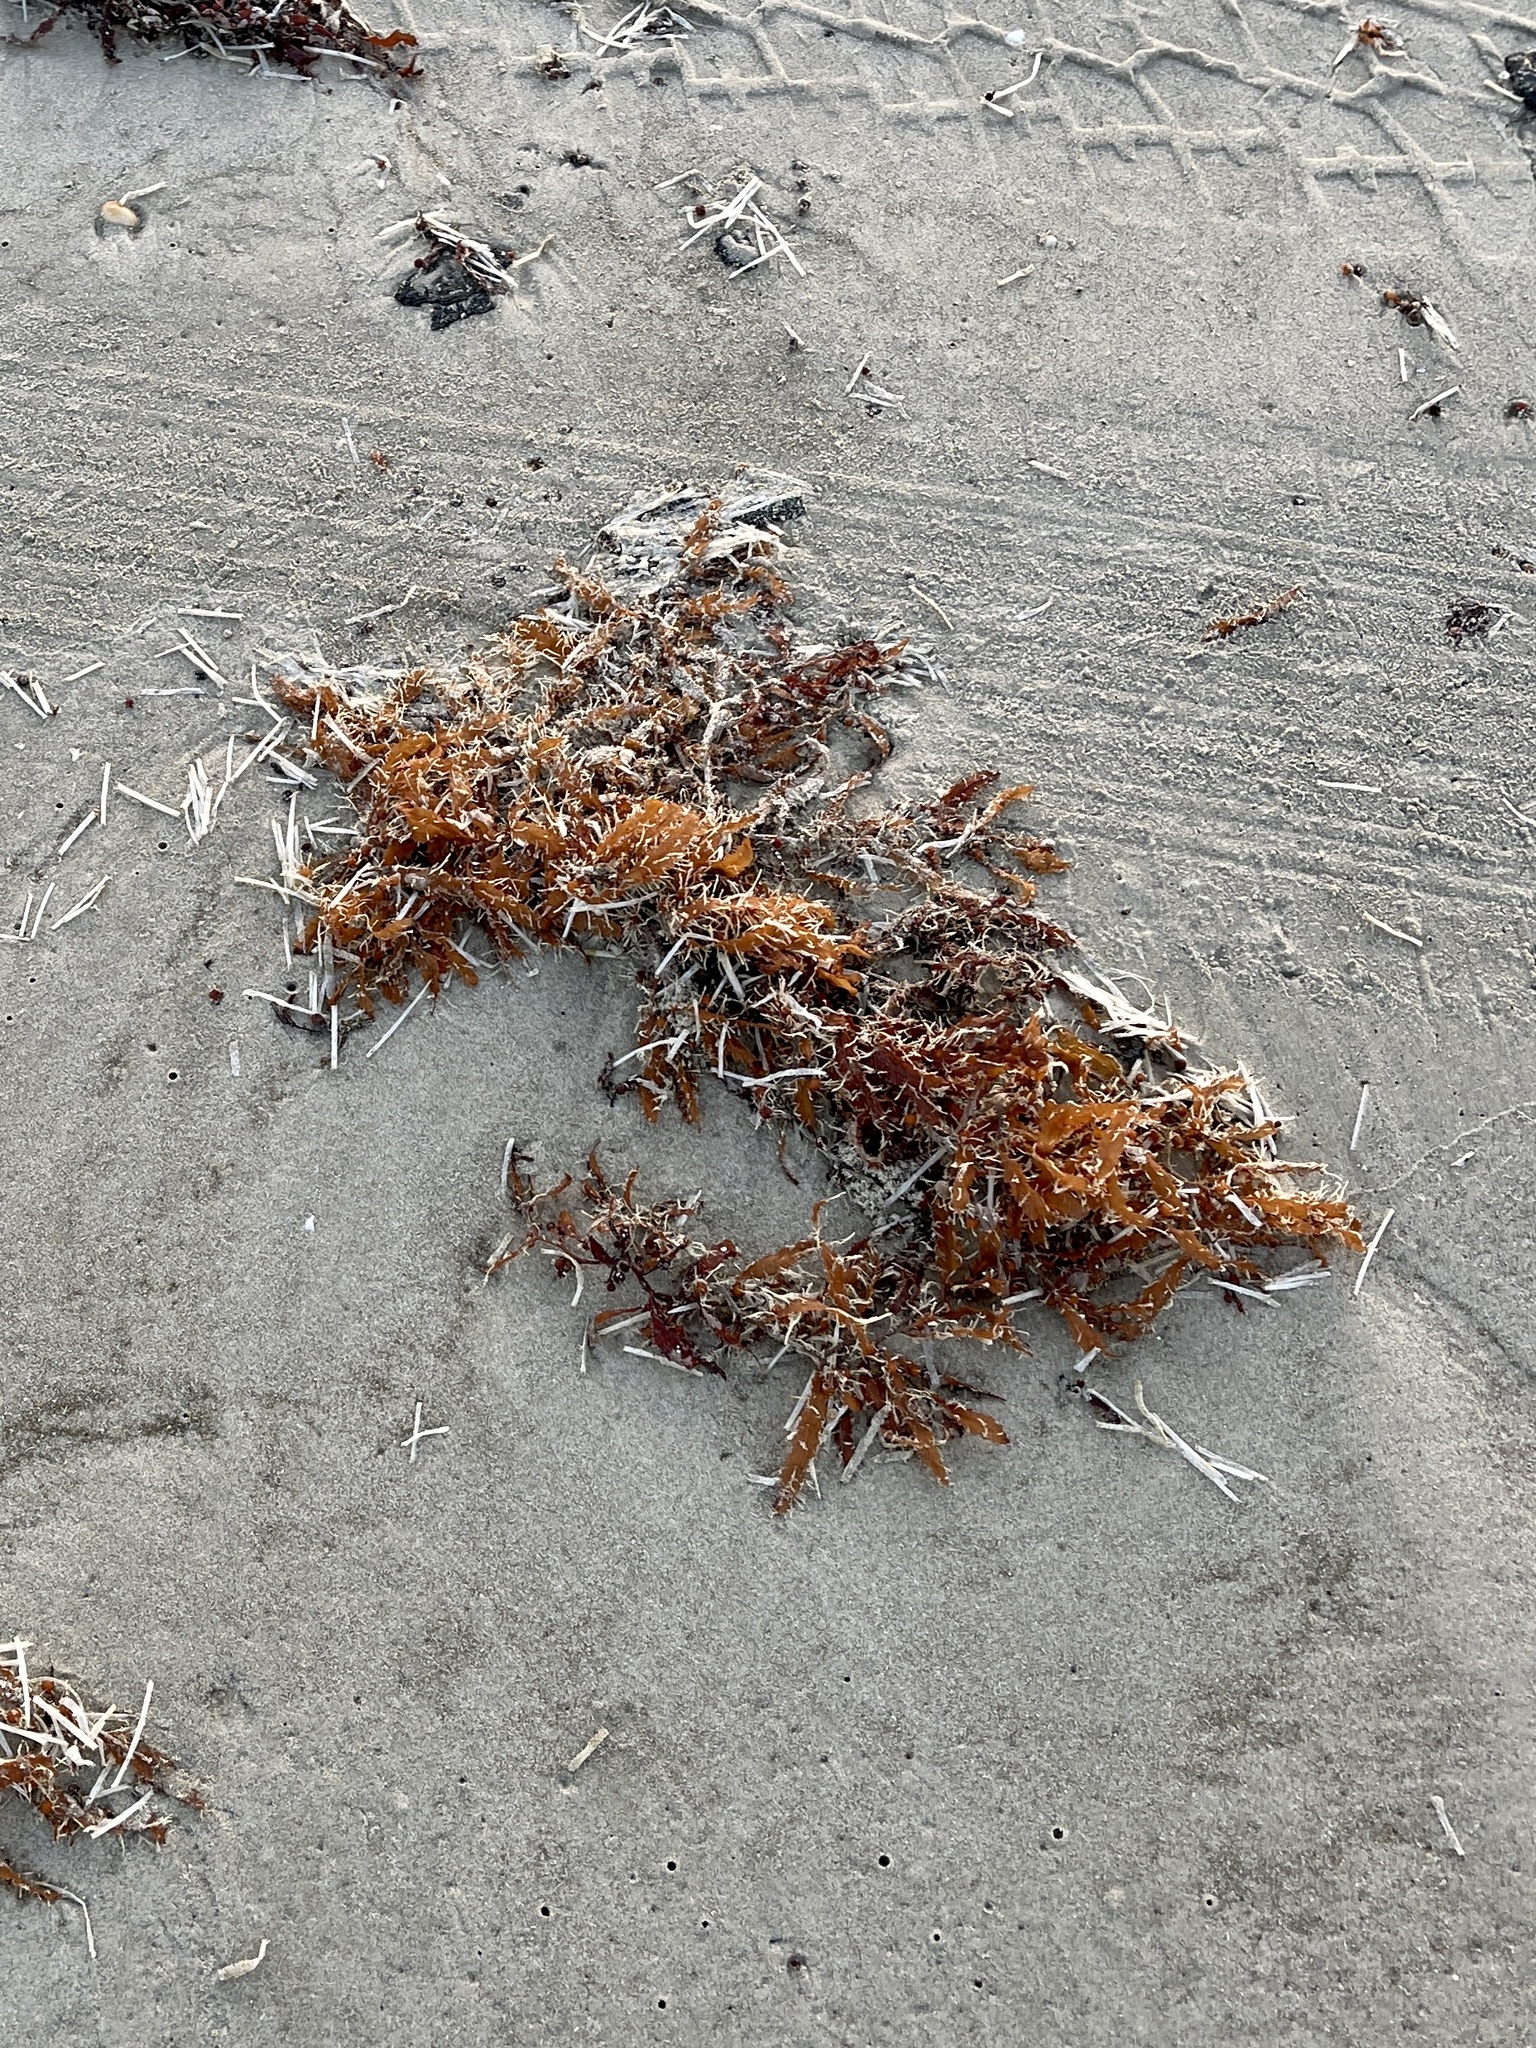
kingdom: Chromista
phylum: Ochrophyta
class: Phaeophyceae
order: Fucales
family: Sargassaceae
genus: Sargassum
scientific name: Sargassum fluitans
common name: Sargassum seaweed
